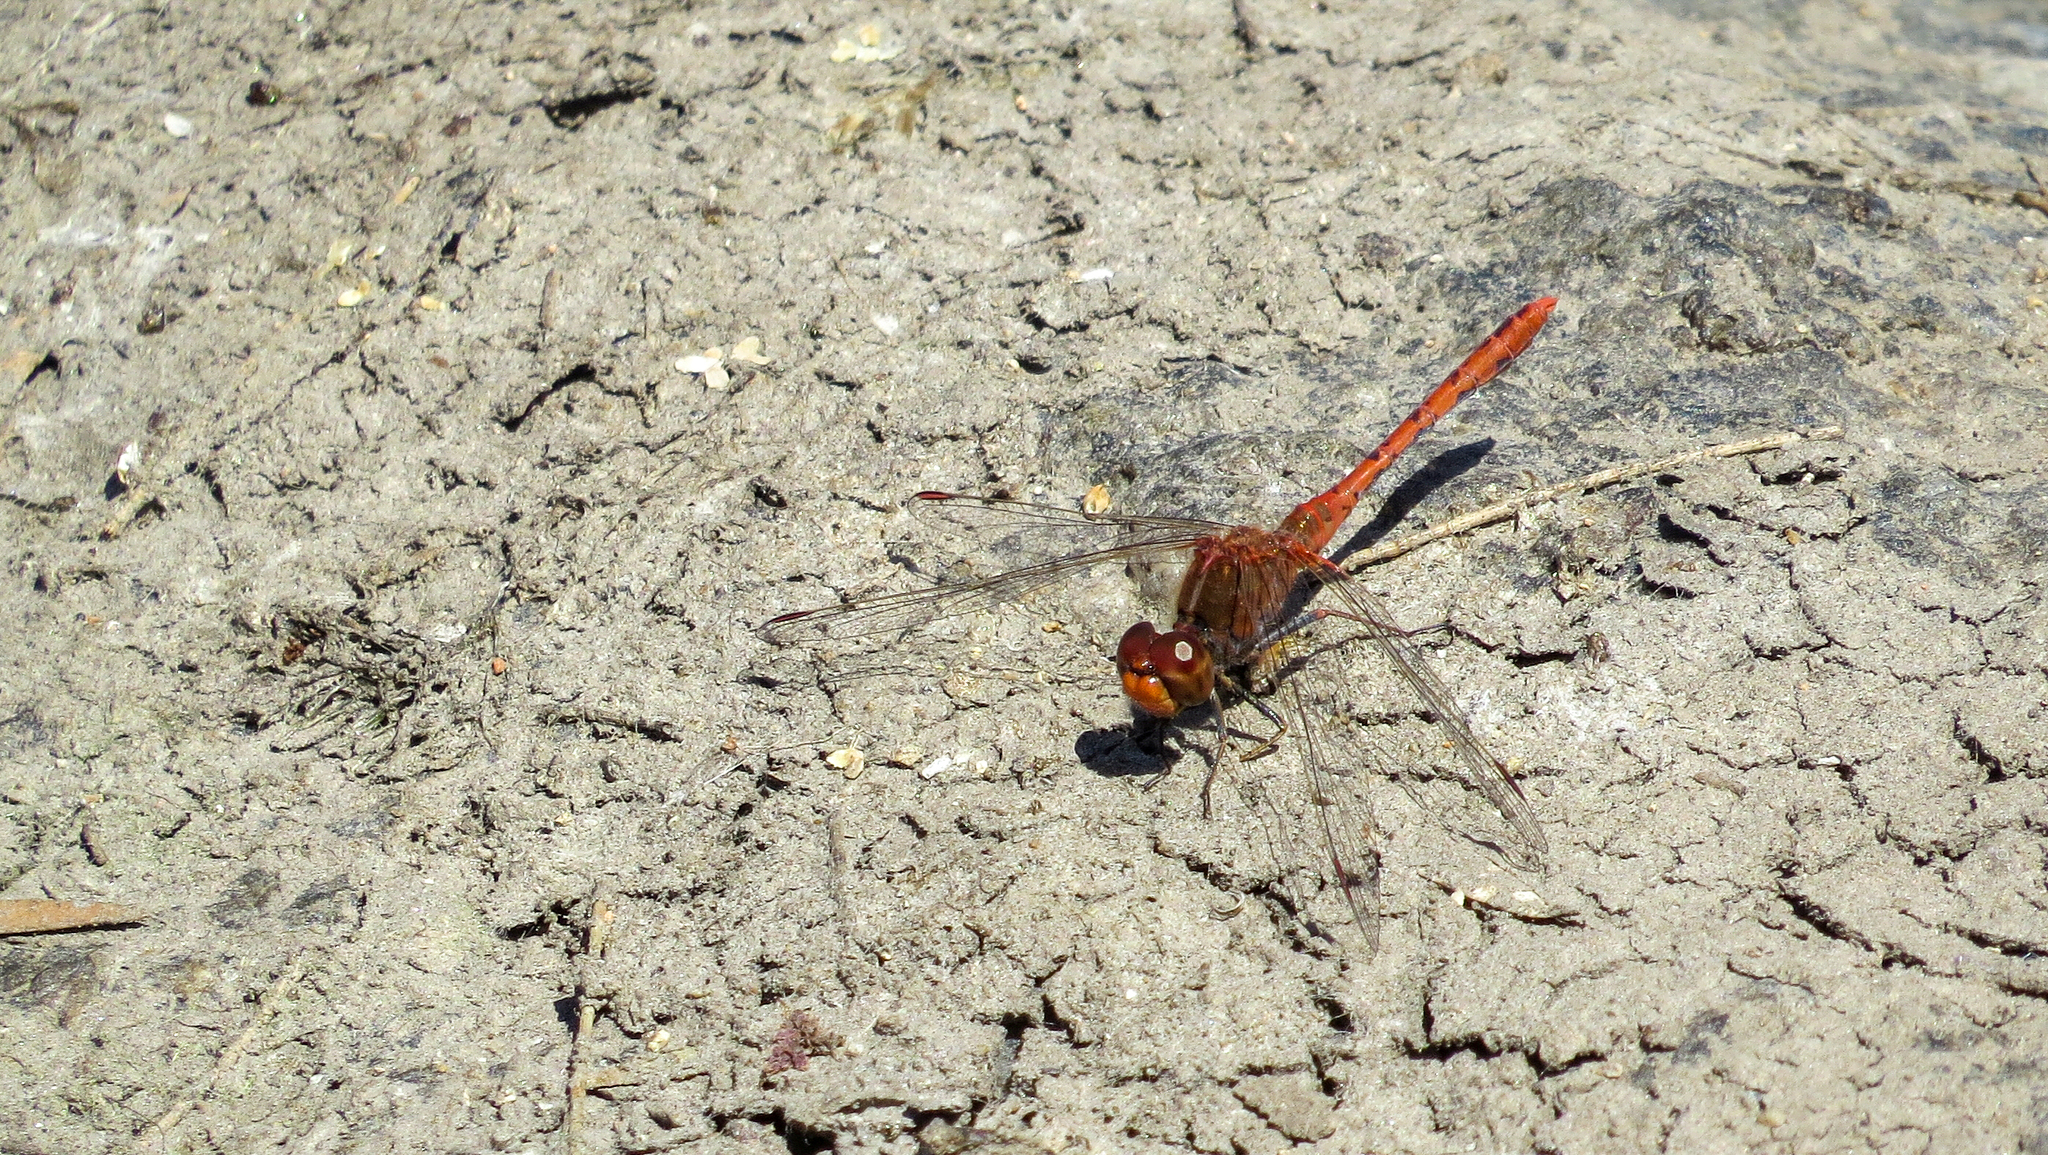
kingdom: Animalia
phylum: Arthropoda
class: Insecta
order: Odonata
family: Libellulidae
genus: Diplacodes
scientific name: Diplacodes bipunctata
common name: Red percher dragonfly
